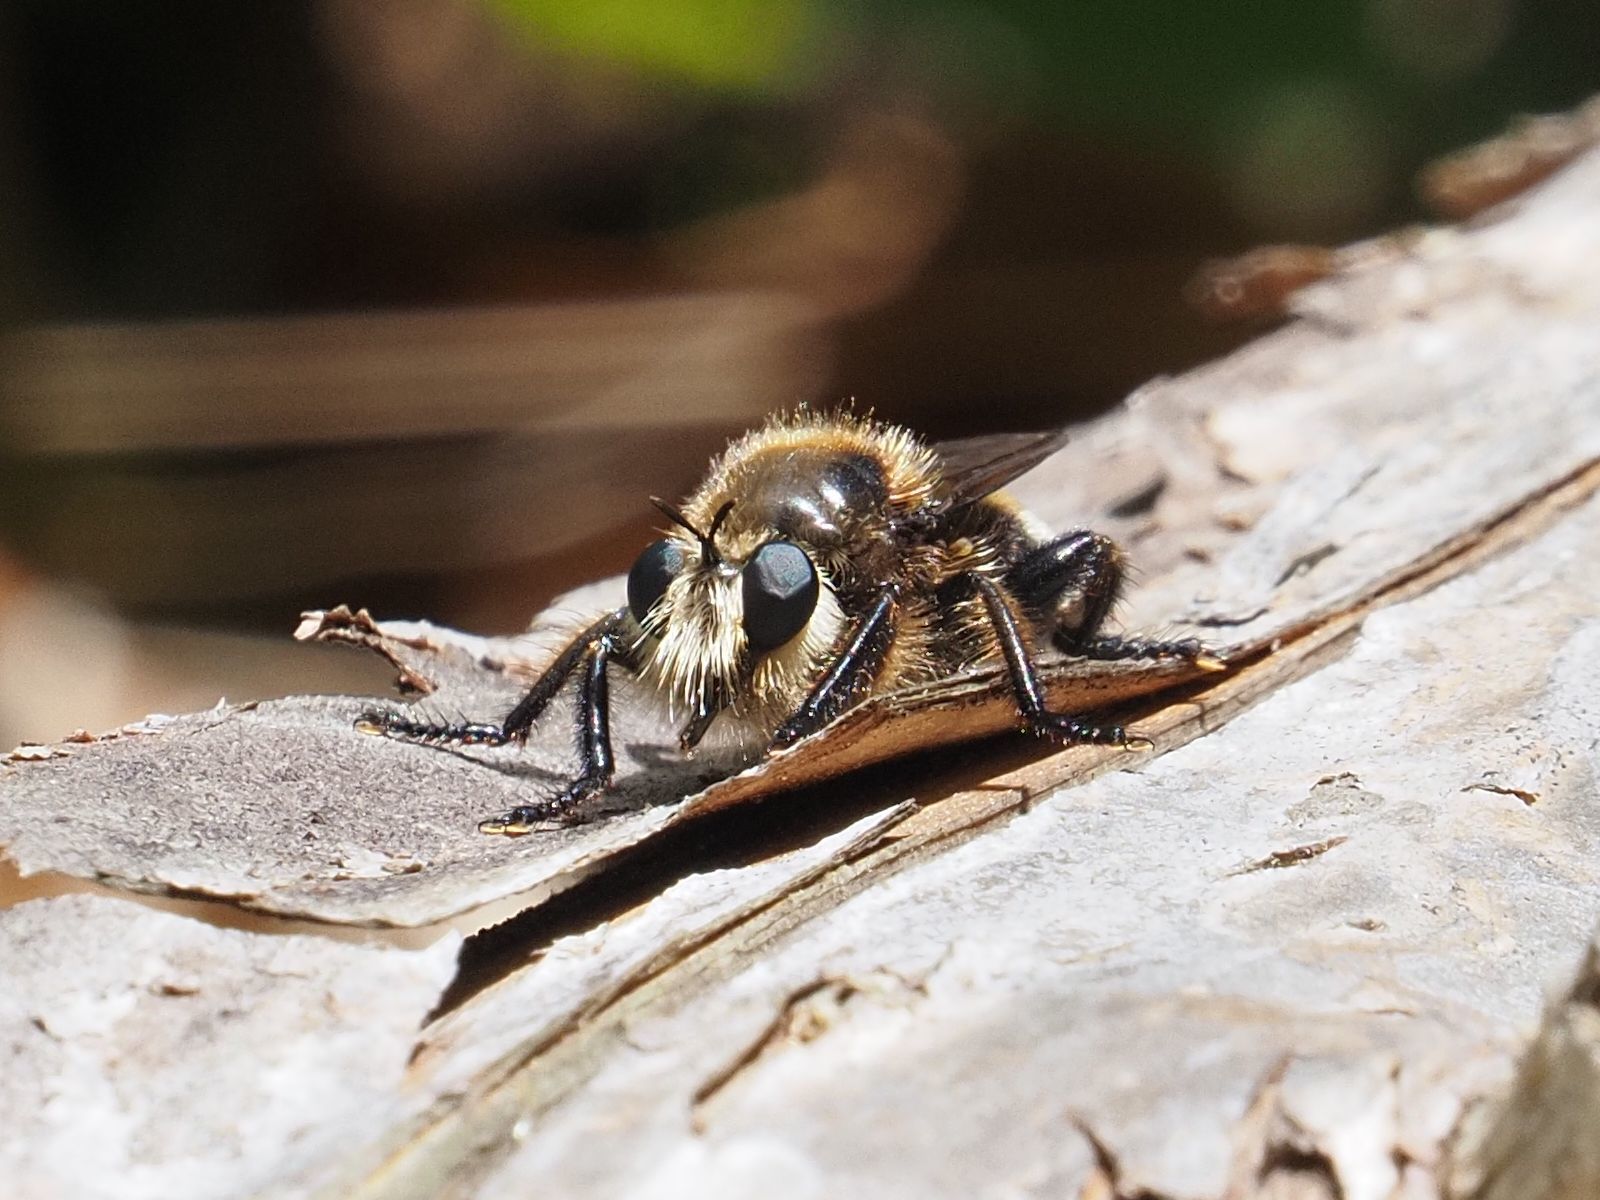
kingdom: Animalia
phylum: Arthropoda
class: Insecta
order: Diptera
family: Asilidae
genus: Laphria
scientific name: Laphria gibbosa
